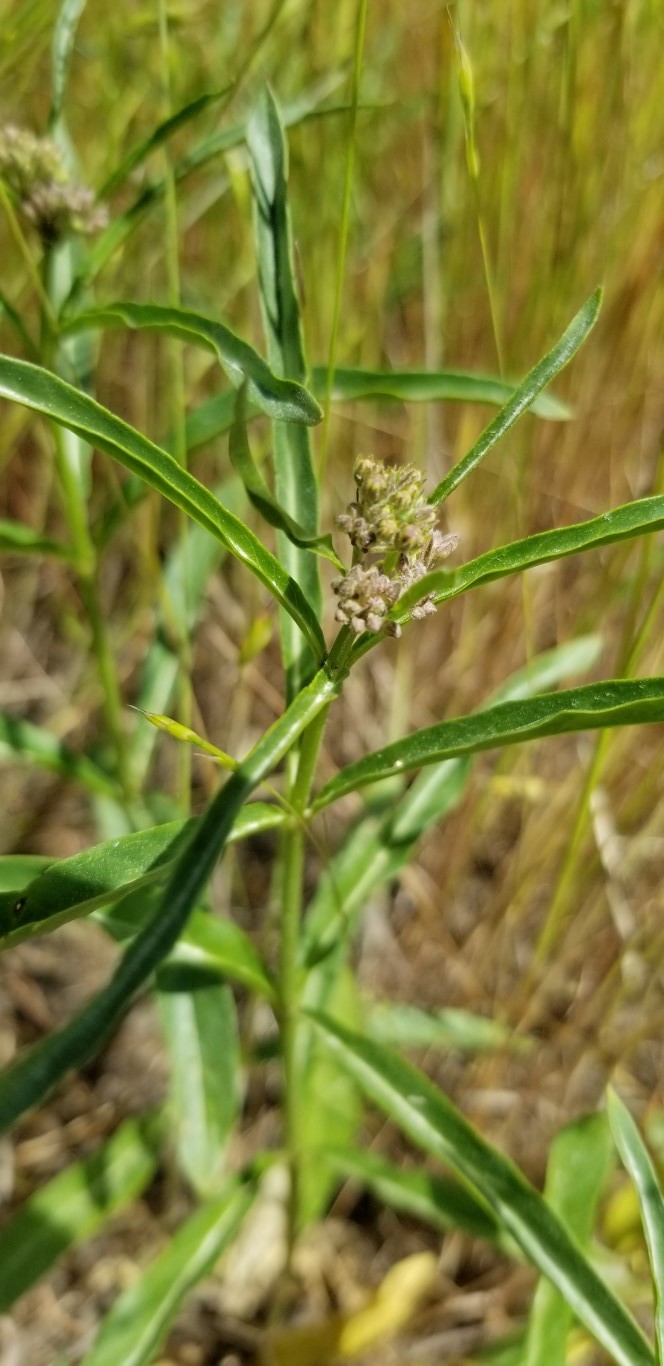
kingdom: Plantae
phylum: Tracheophyta
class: Magnoliopsida
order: Gentianales
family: Apocynaceae
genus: Asclepias
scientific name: Asclepias fascicularis
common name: Mexican milkweed
